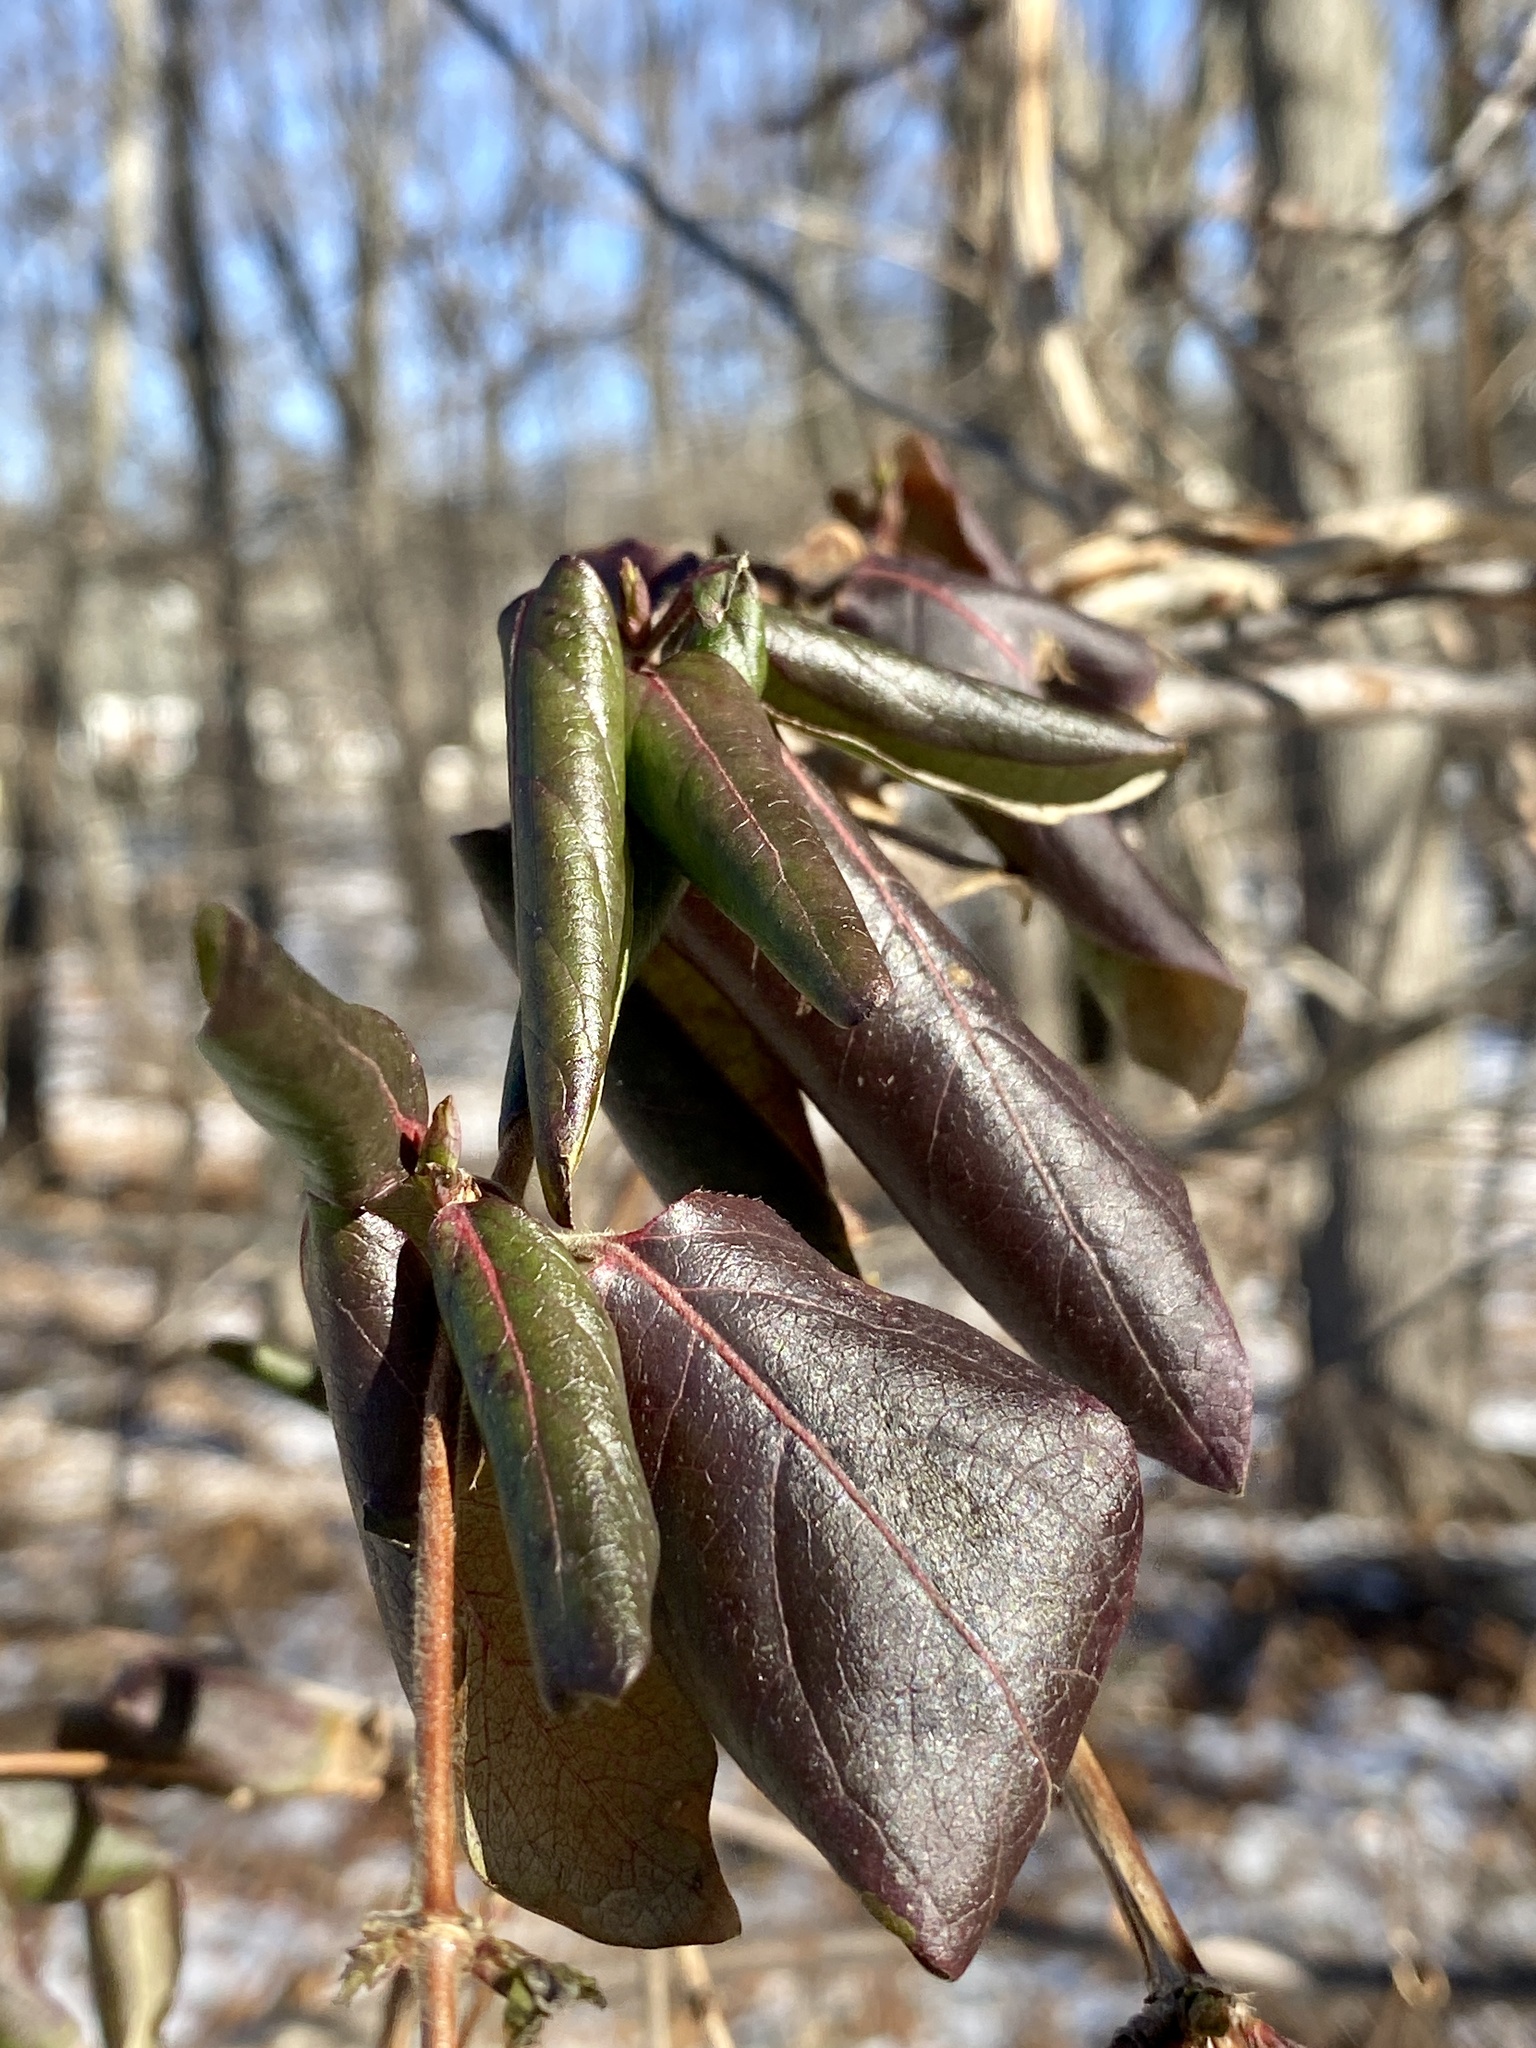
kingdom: Plantae
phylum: Tracheophyta
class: Magnoliopsida
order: Dipsacales
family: Caprifoliaceae
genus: Lonicera
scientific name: Lonicera japonica
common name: Japanese honeysuckle
